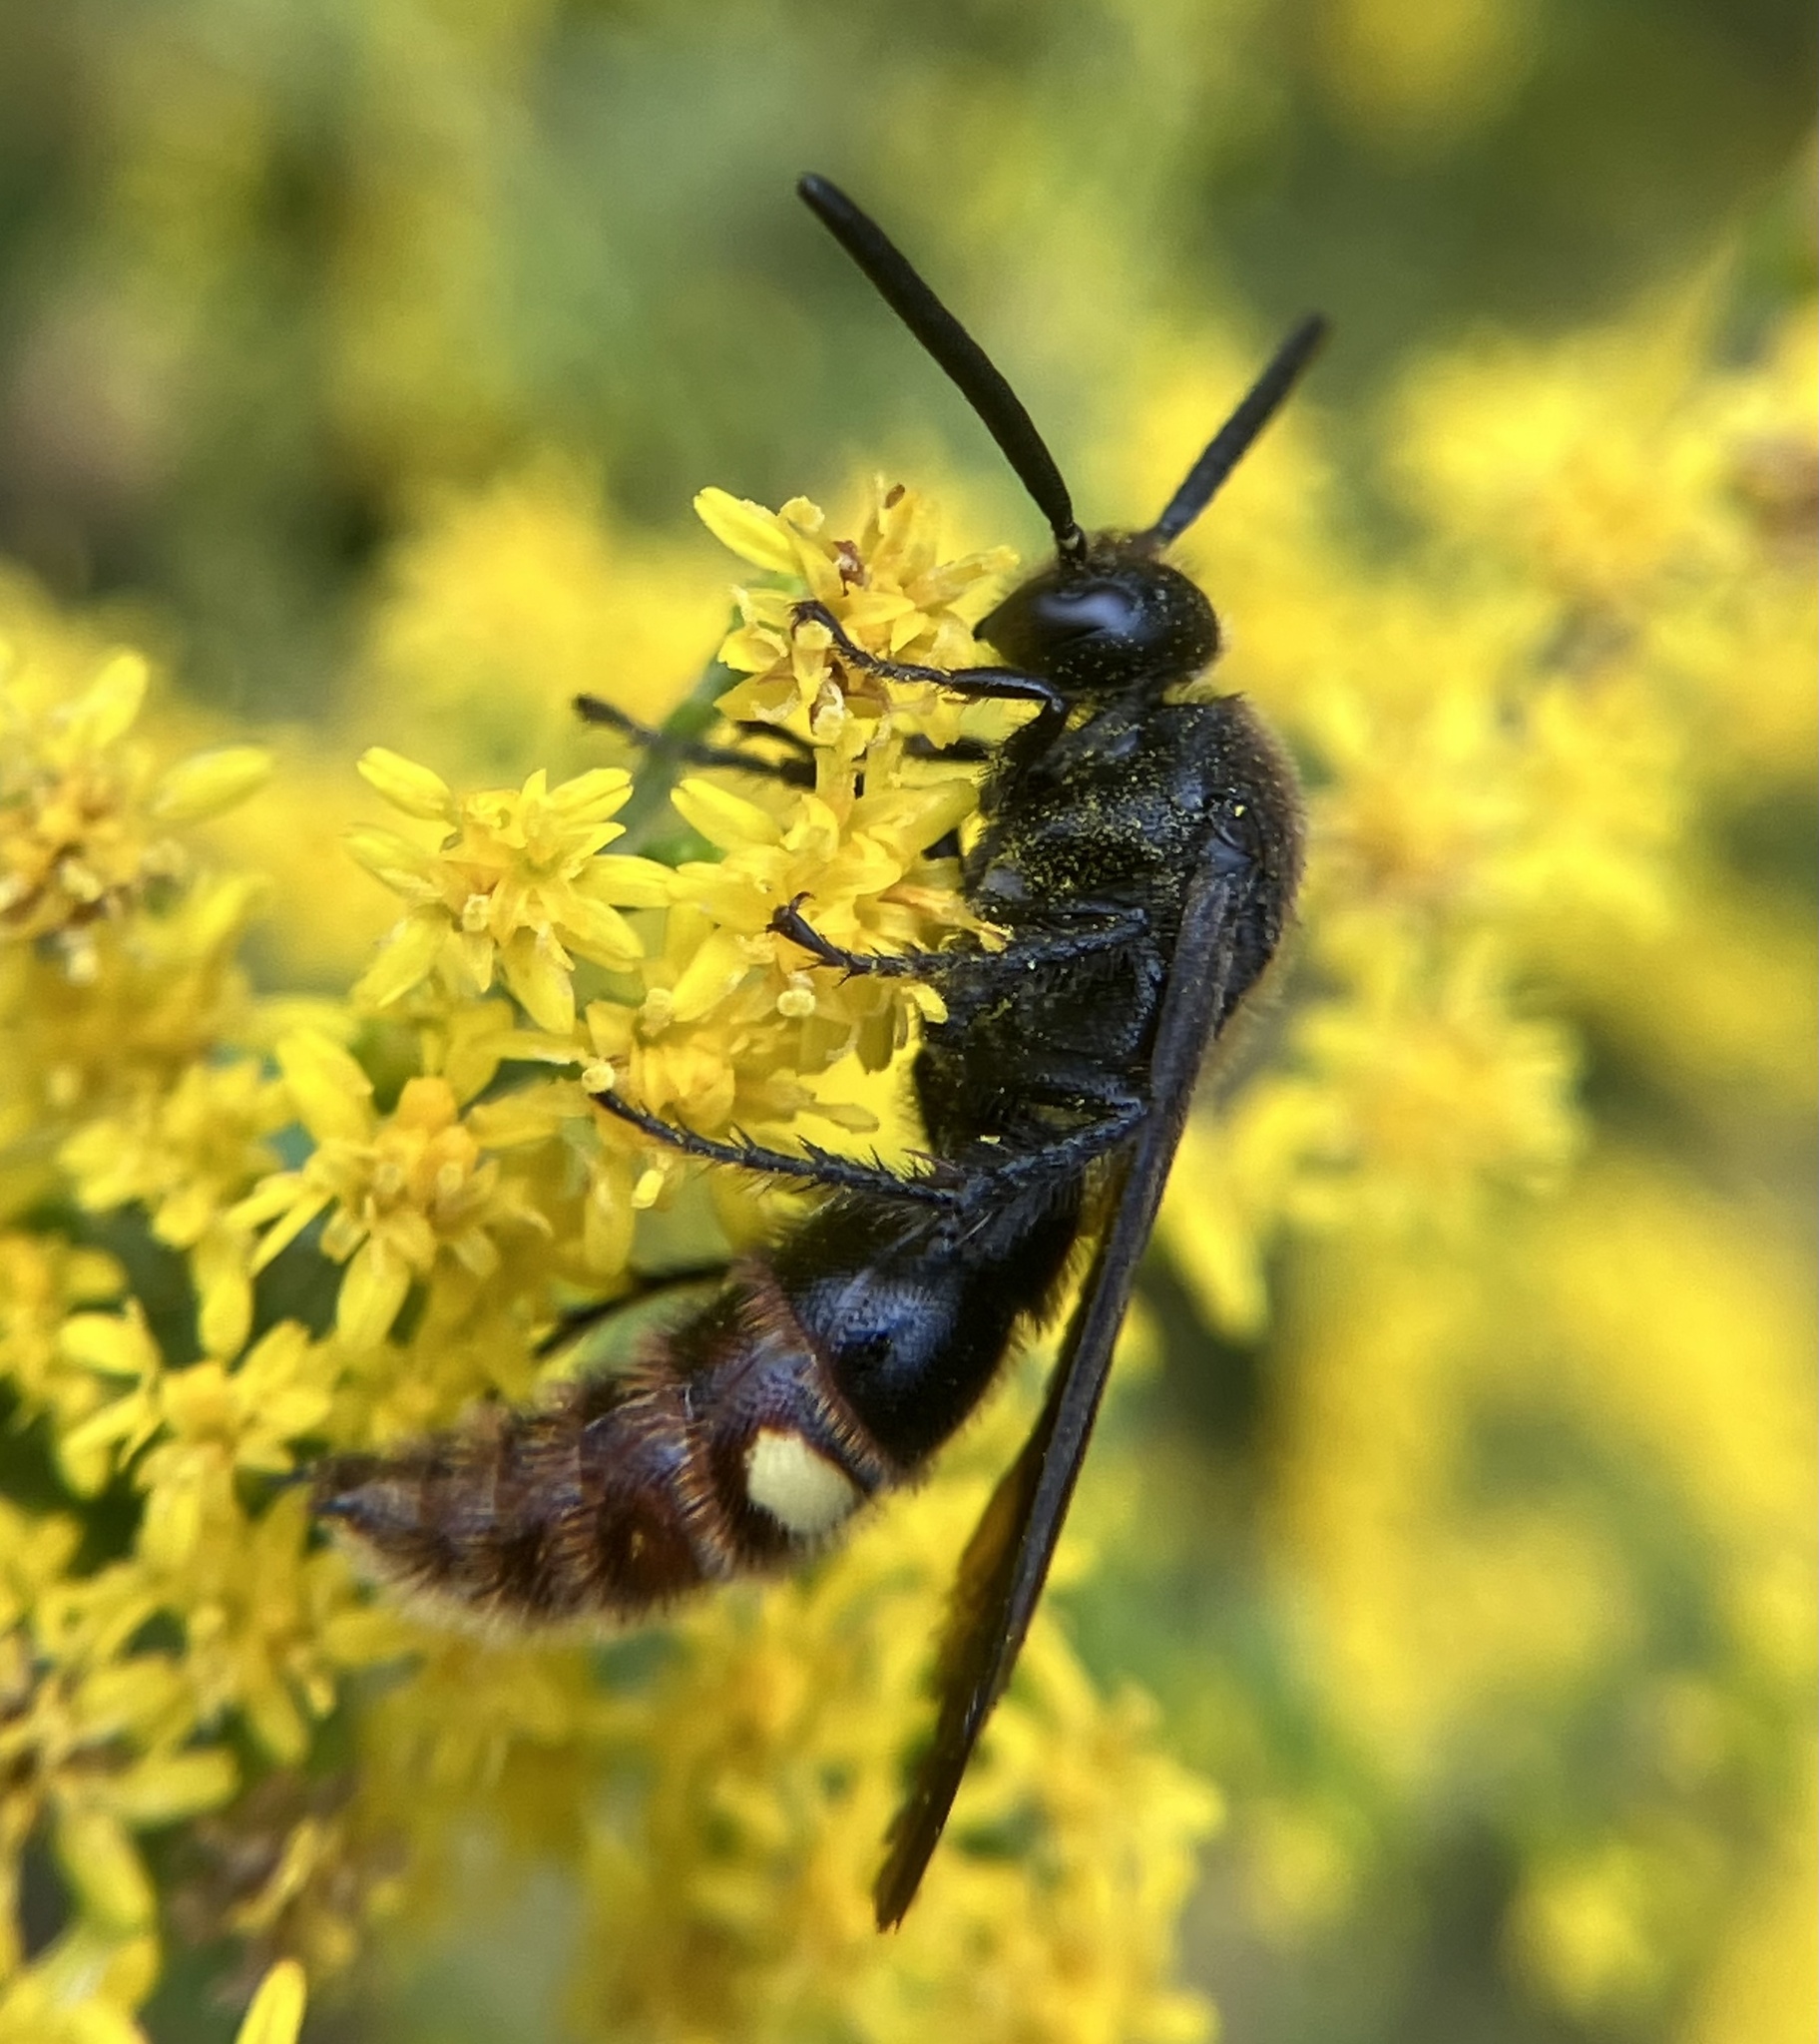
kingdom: Animalia
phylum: Arthropoda
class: Insecta
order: Hymenoptera
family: Scoliidae
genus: Scolia
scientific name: Scolia dubia
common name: Blue-winged scoliid wasp
